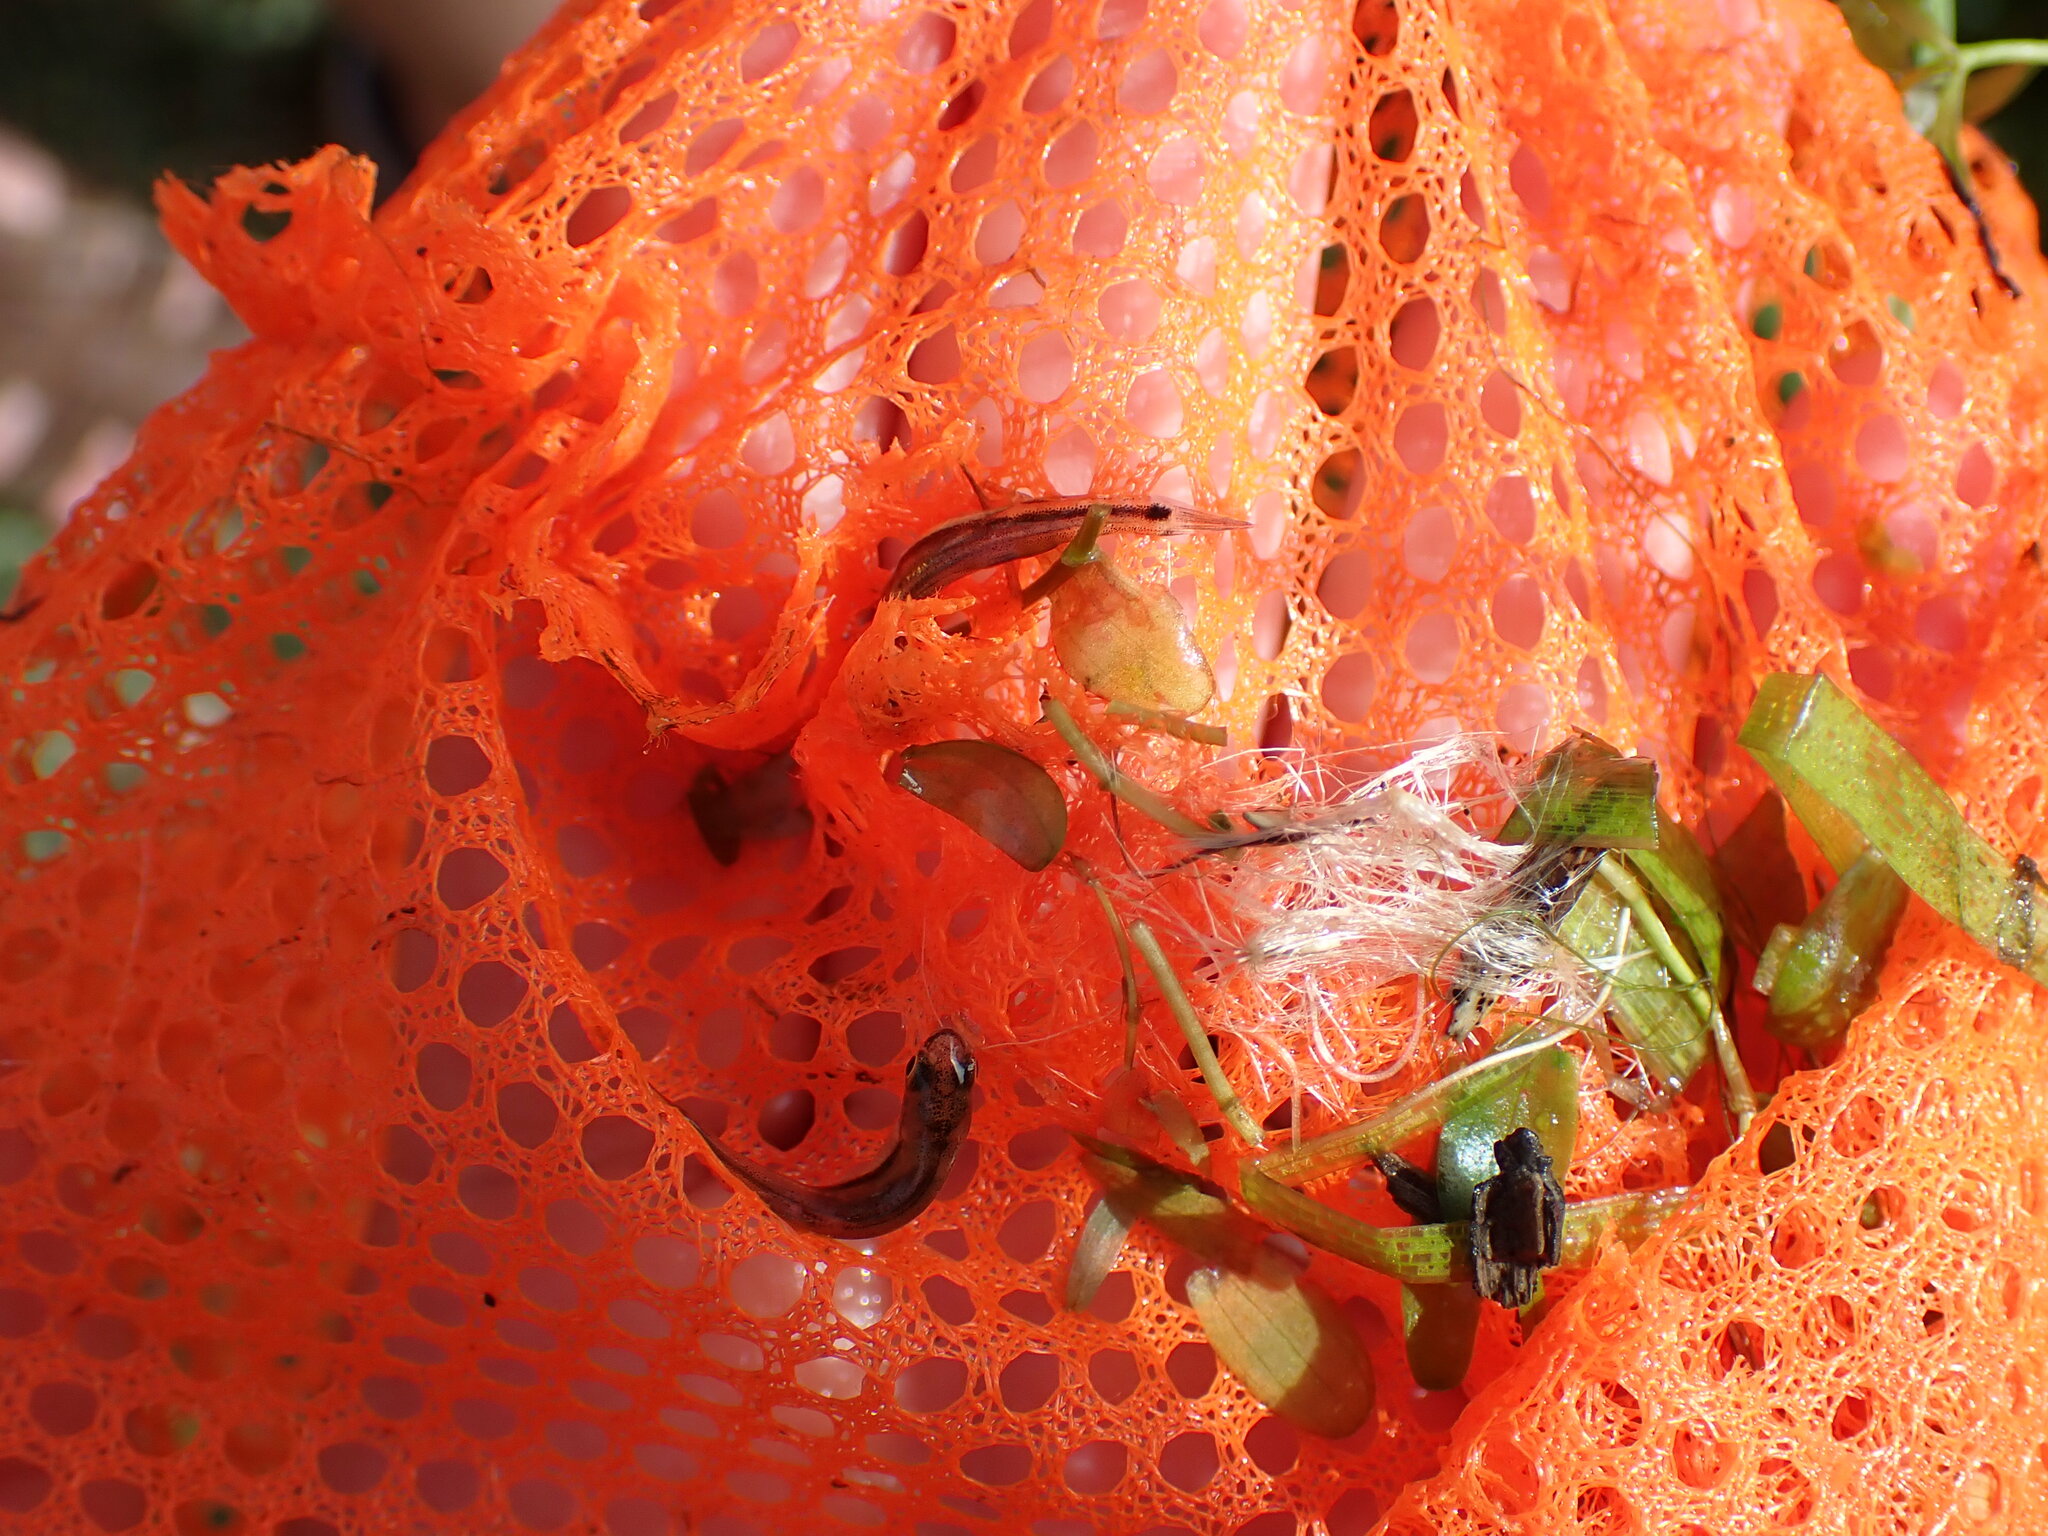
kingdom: Animalia
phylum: Chordata
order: Cypriniformes
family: Cyprinidae
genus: Phoxinus
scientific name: Phoxinus phoxinus
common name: Minnow
